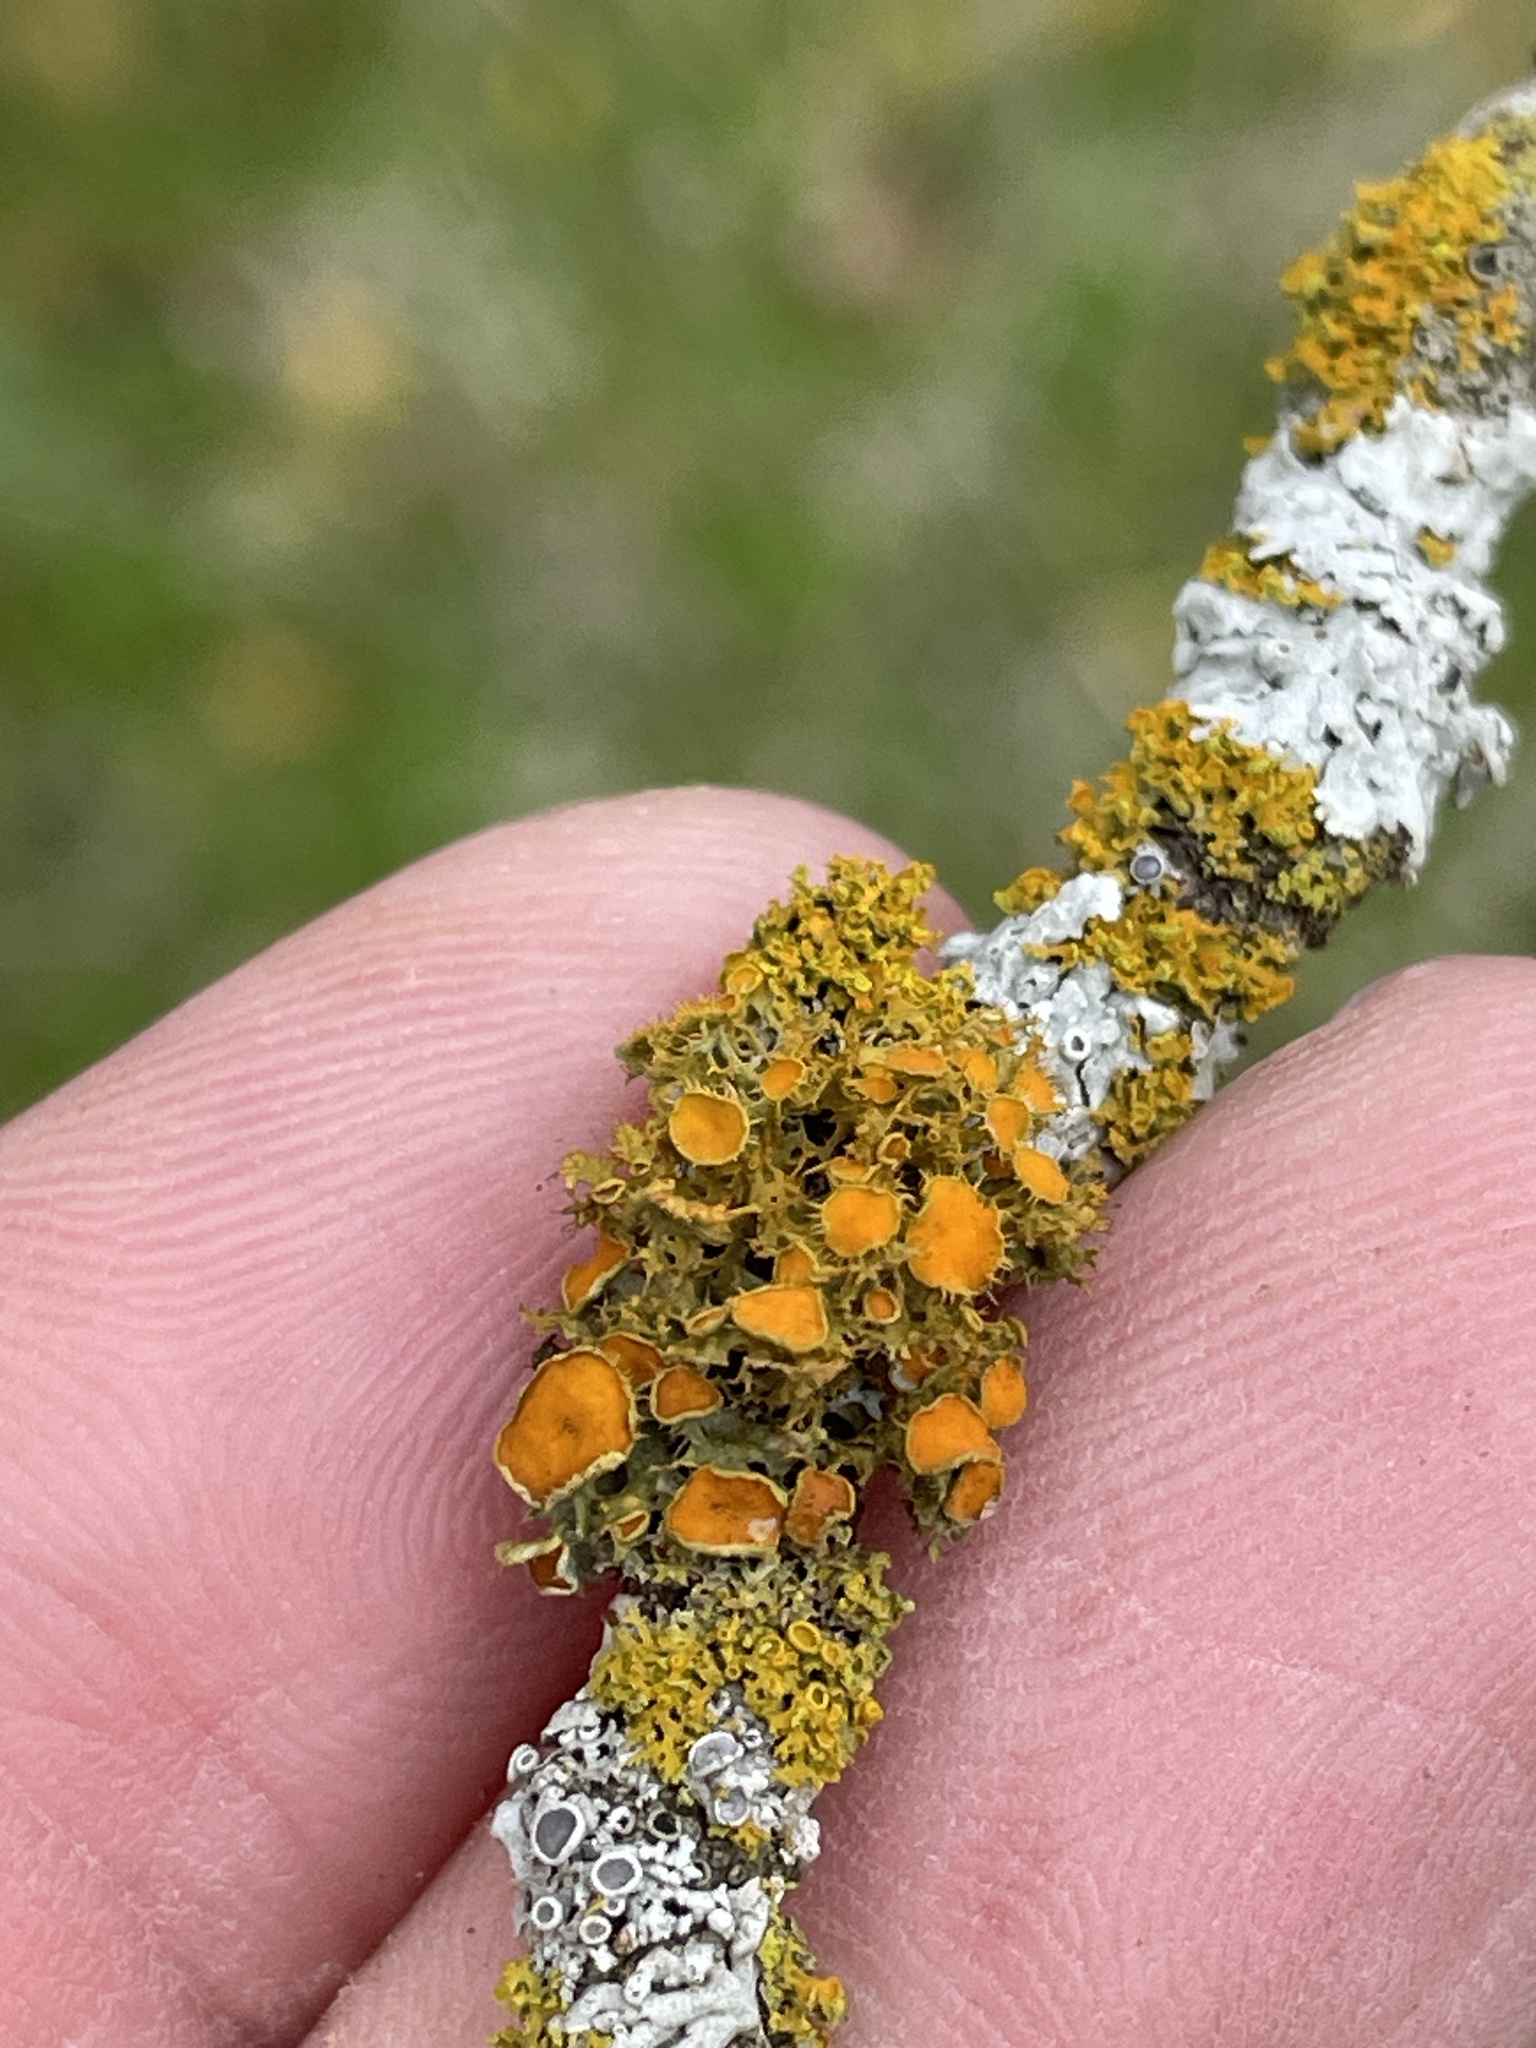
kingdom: Fungi
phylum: Ascomycota
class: Lecanoromycetes
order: Teloschistales
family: Teloschistaceae
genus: Niorma
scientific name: Niorma chrysophthalma
